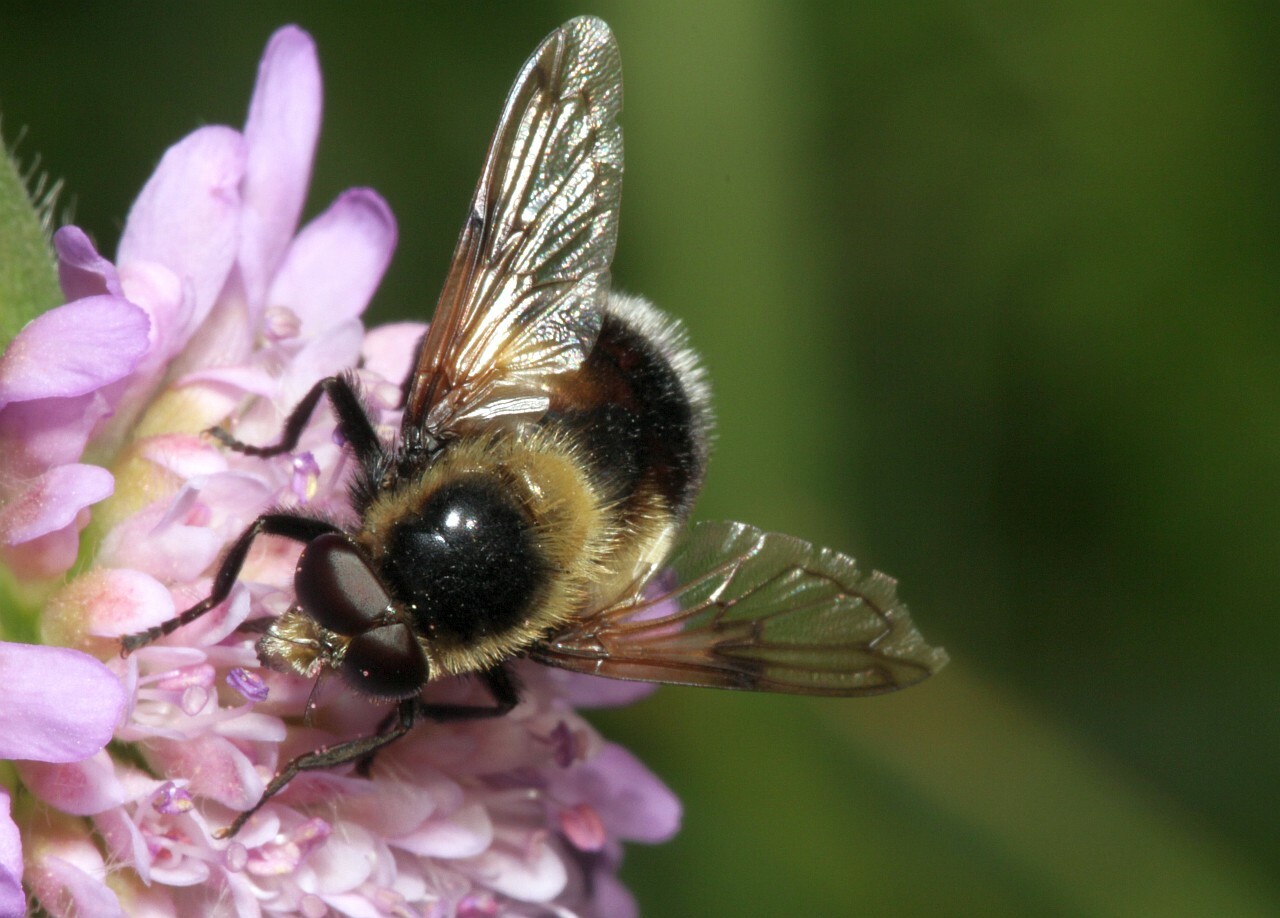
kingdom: Animalia
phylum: Arthropoda
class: Insecta
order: Diptera
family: Syrphidae
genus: Volucella
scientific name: Volucella bombylans
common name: Bumble bee hover fly
